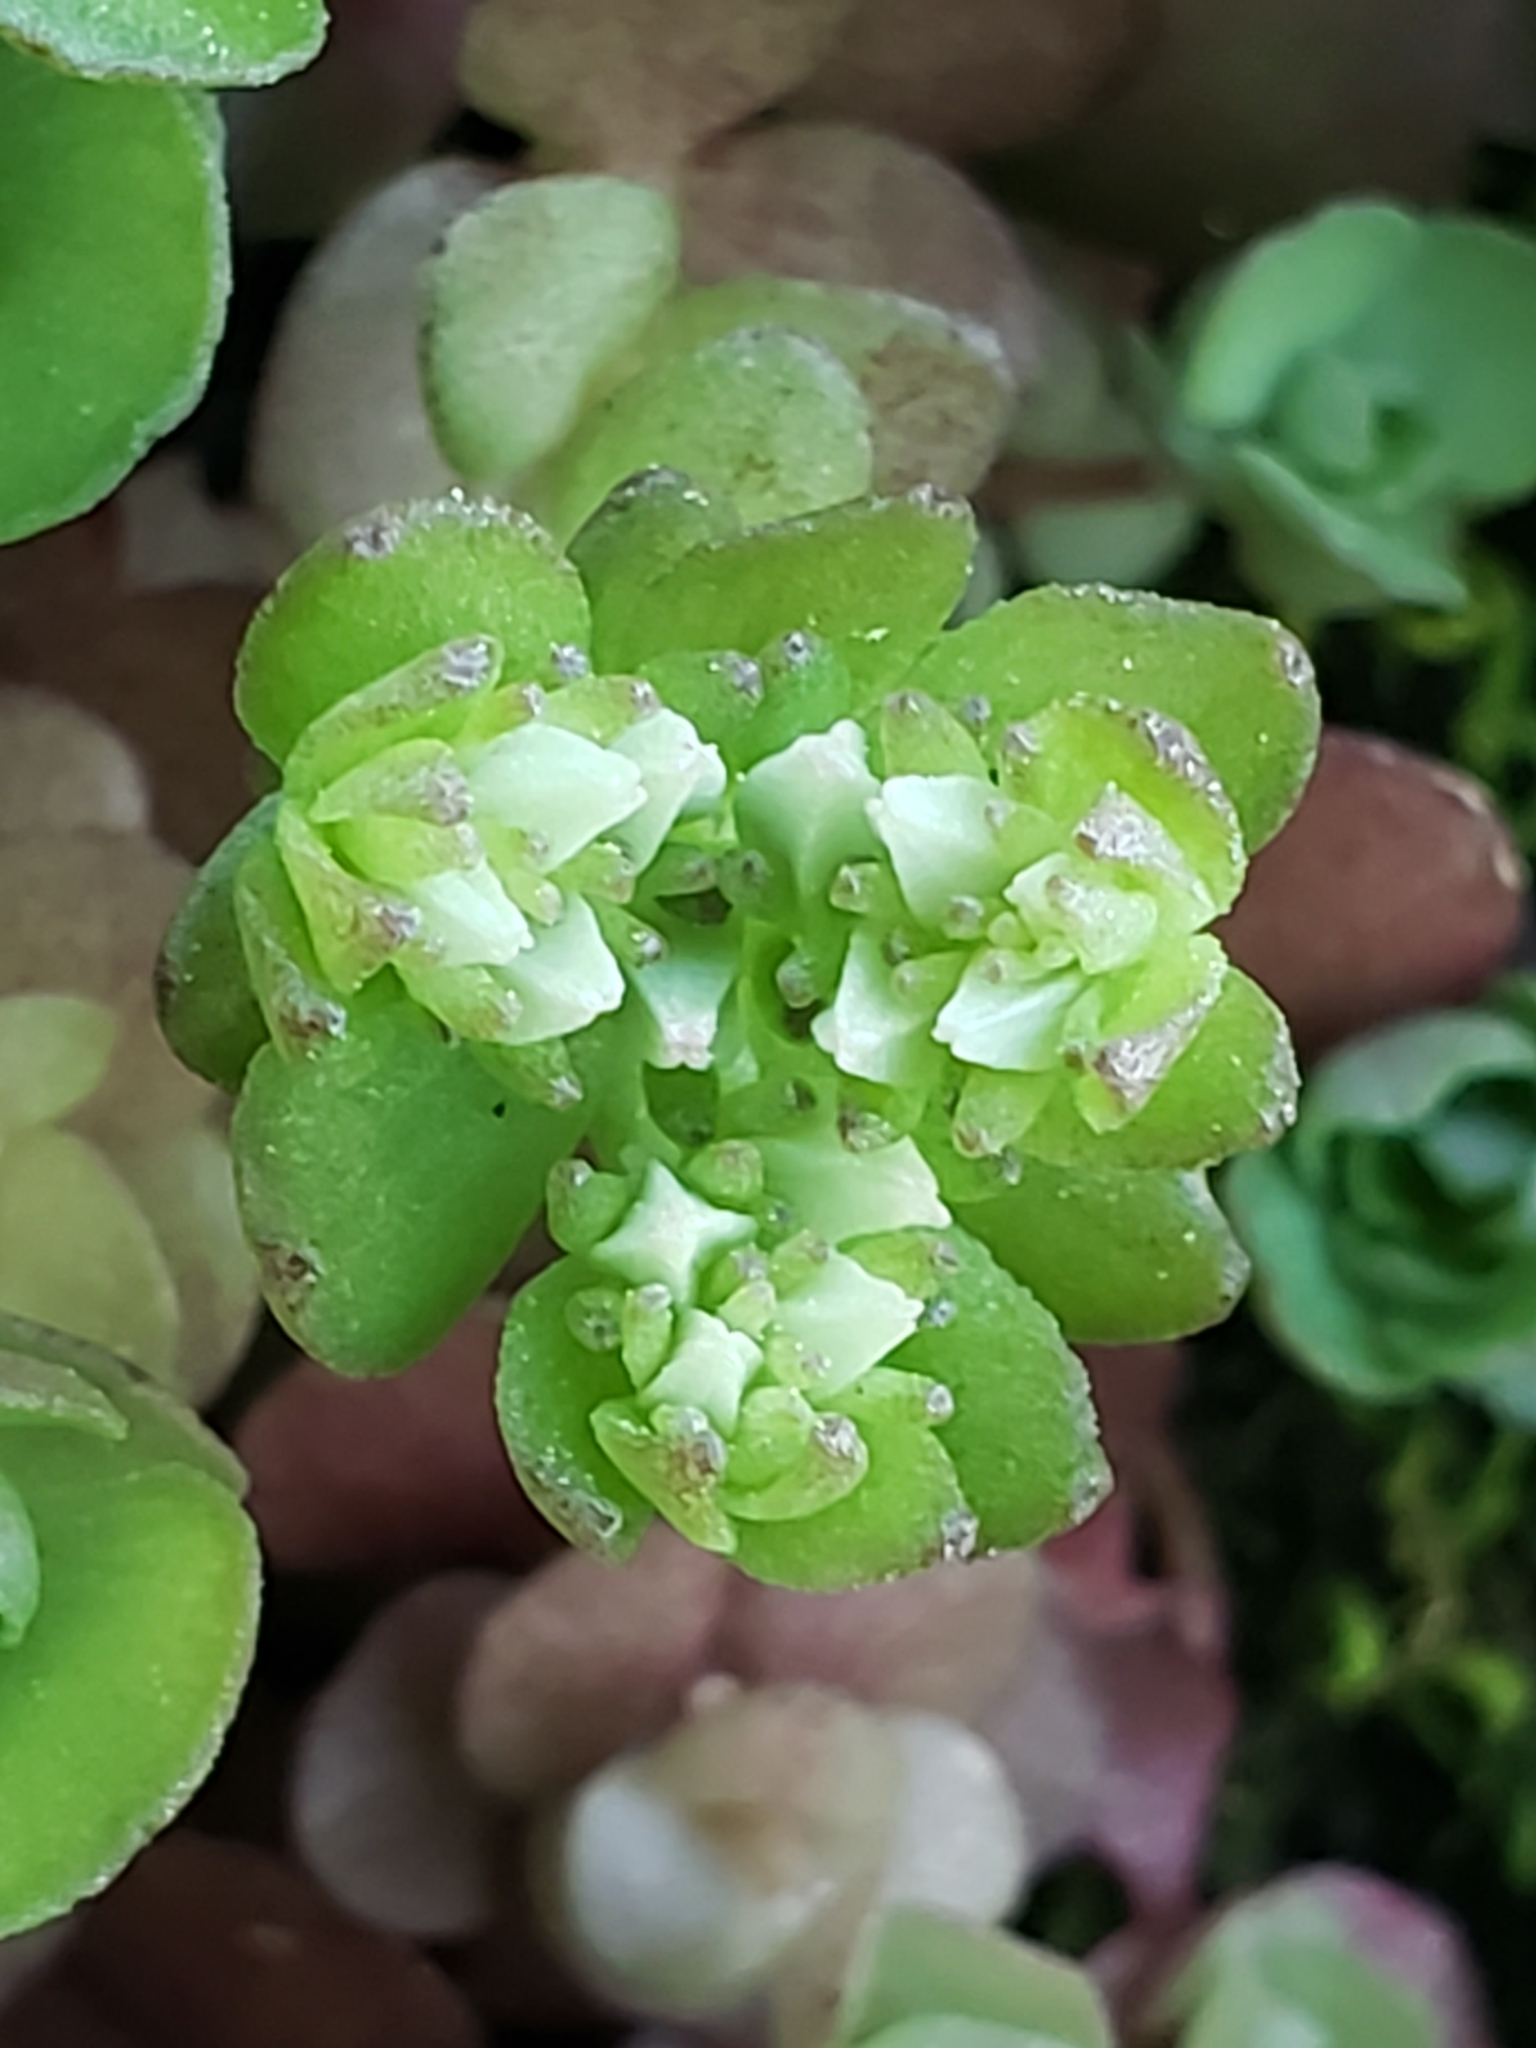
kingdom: Plantae
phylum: Tracheophyta
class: Magnoliopsida
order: Saxifragales
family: Crassulaceae
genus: Sedum
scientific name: Sedum ternatum
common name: Wild stonecrop
